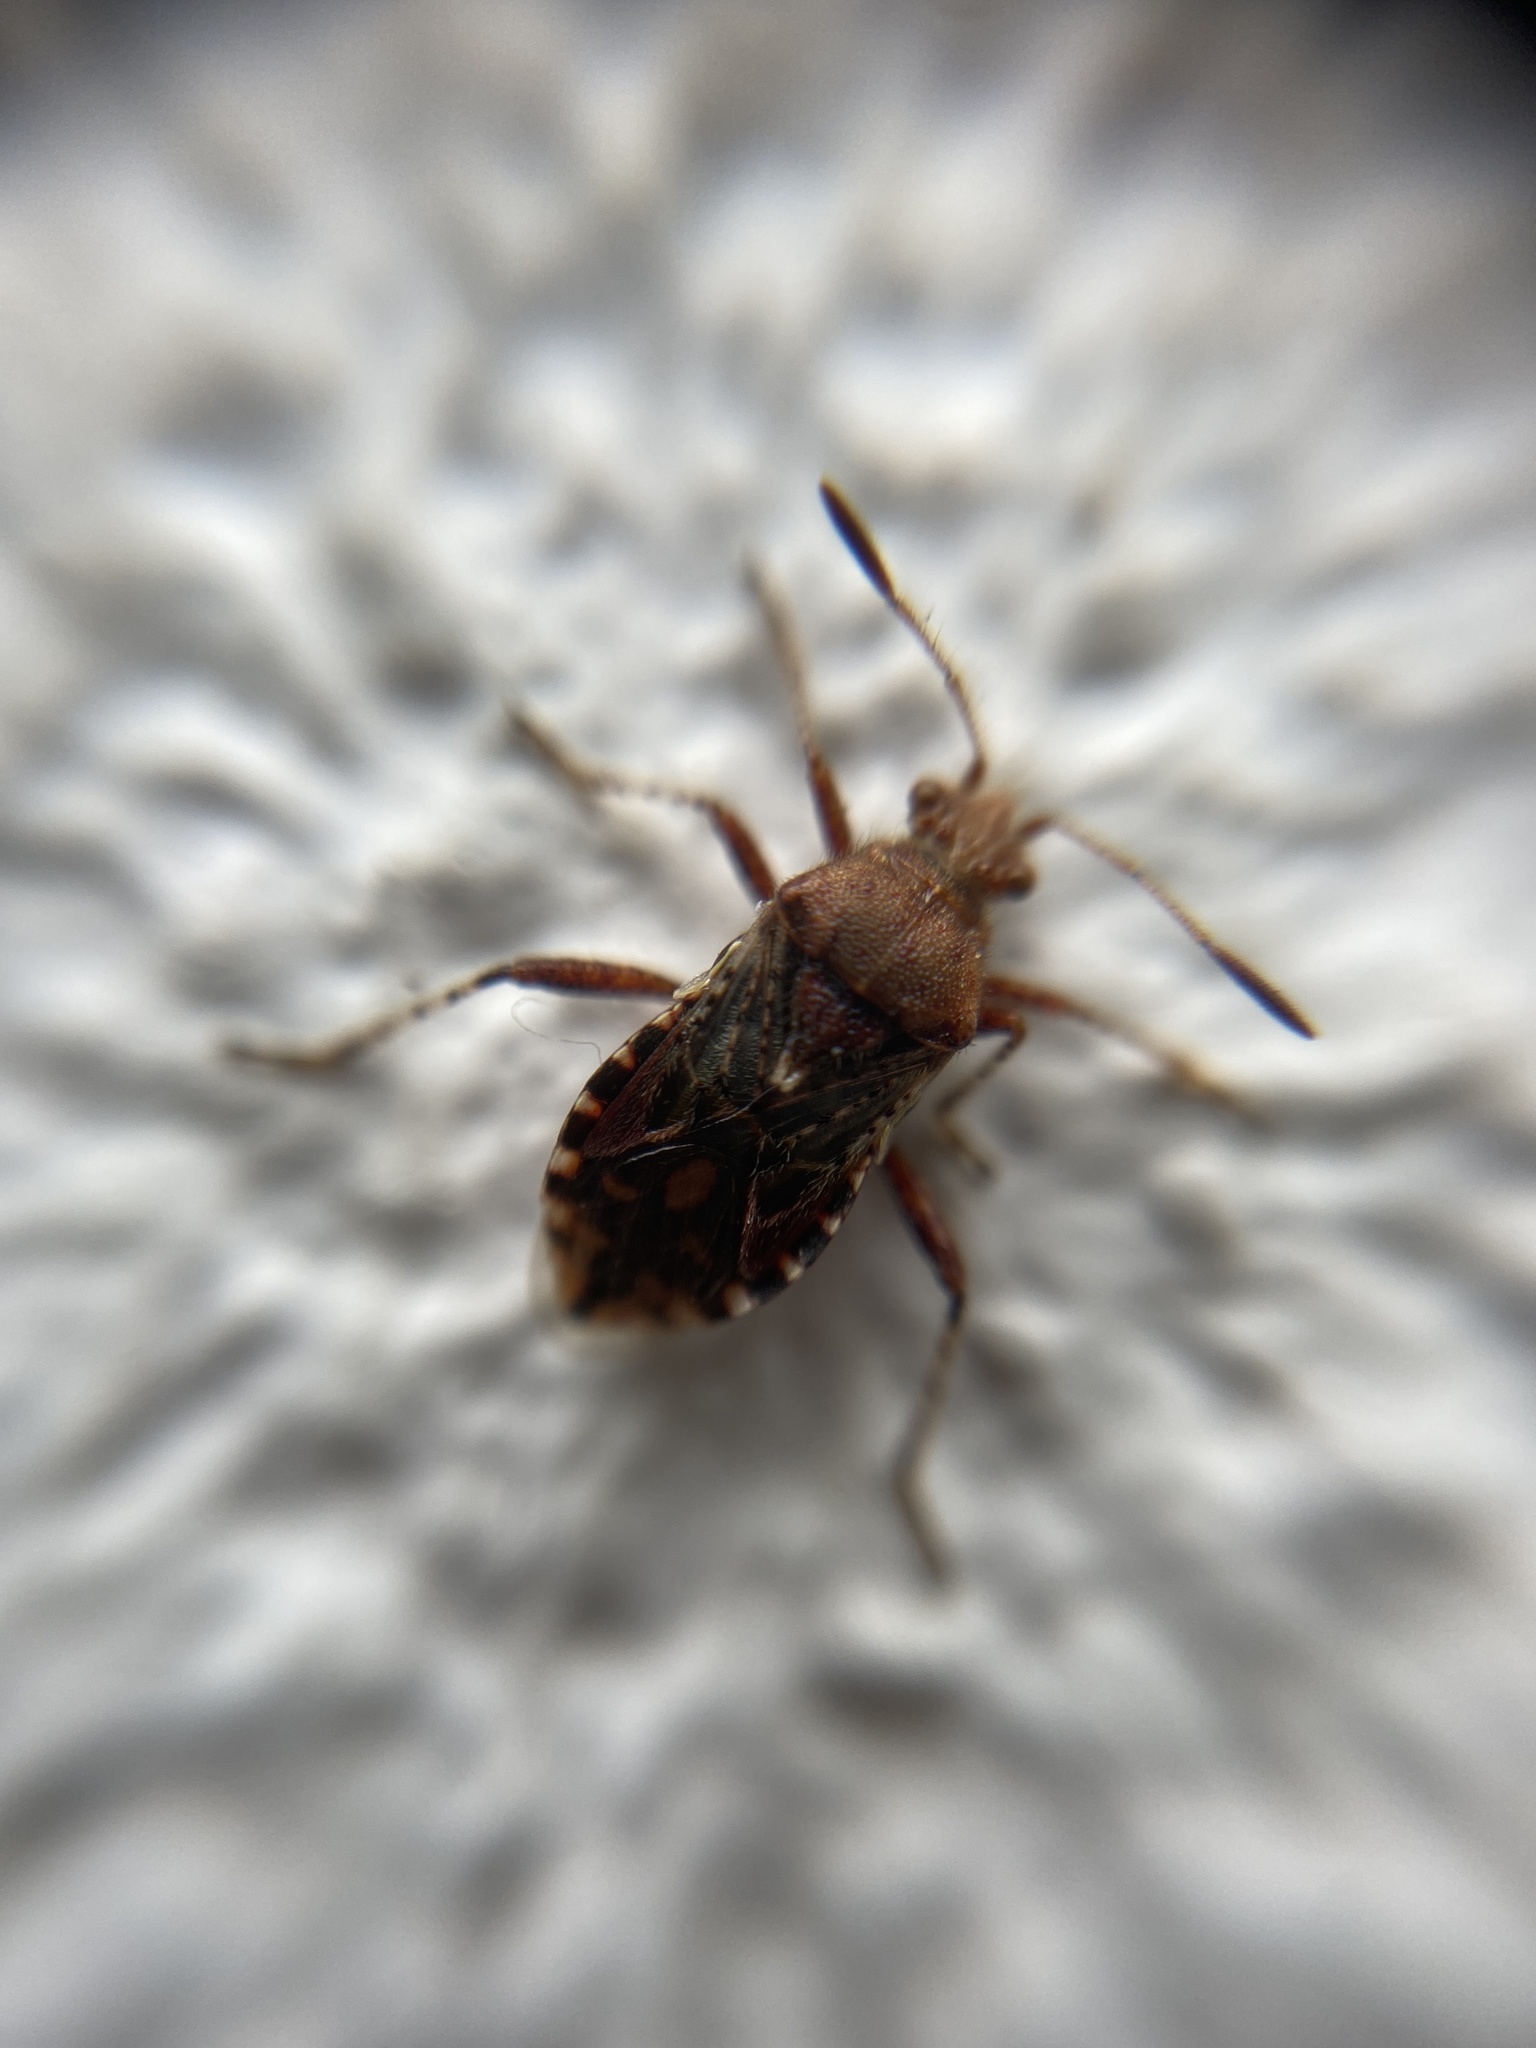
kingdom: Animalia
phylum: Arthropoda
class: Insecta
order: Hemiptera
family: Rhopalidae
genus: Rhopalus
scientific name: Rhopalus subrufus
